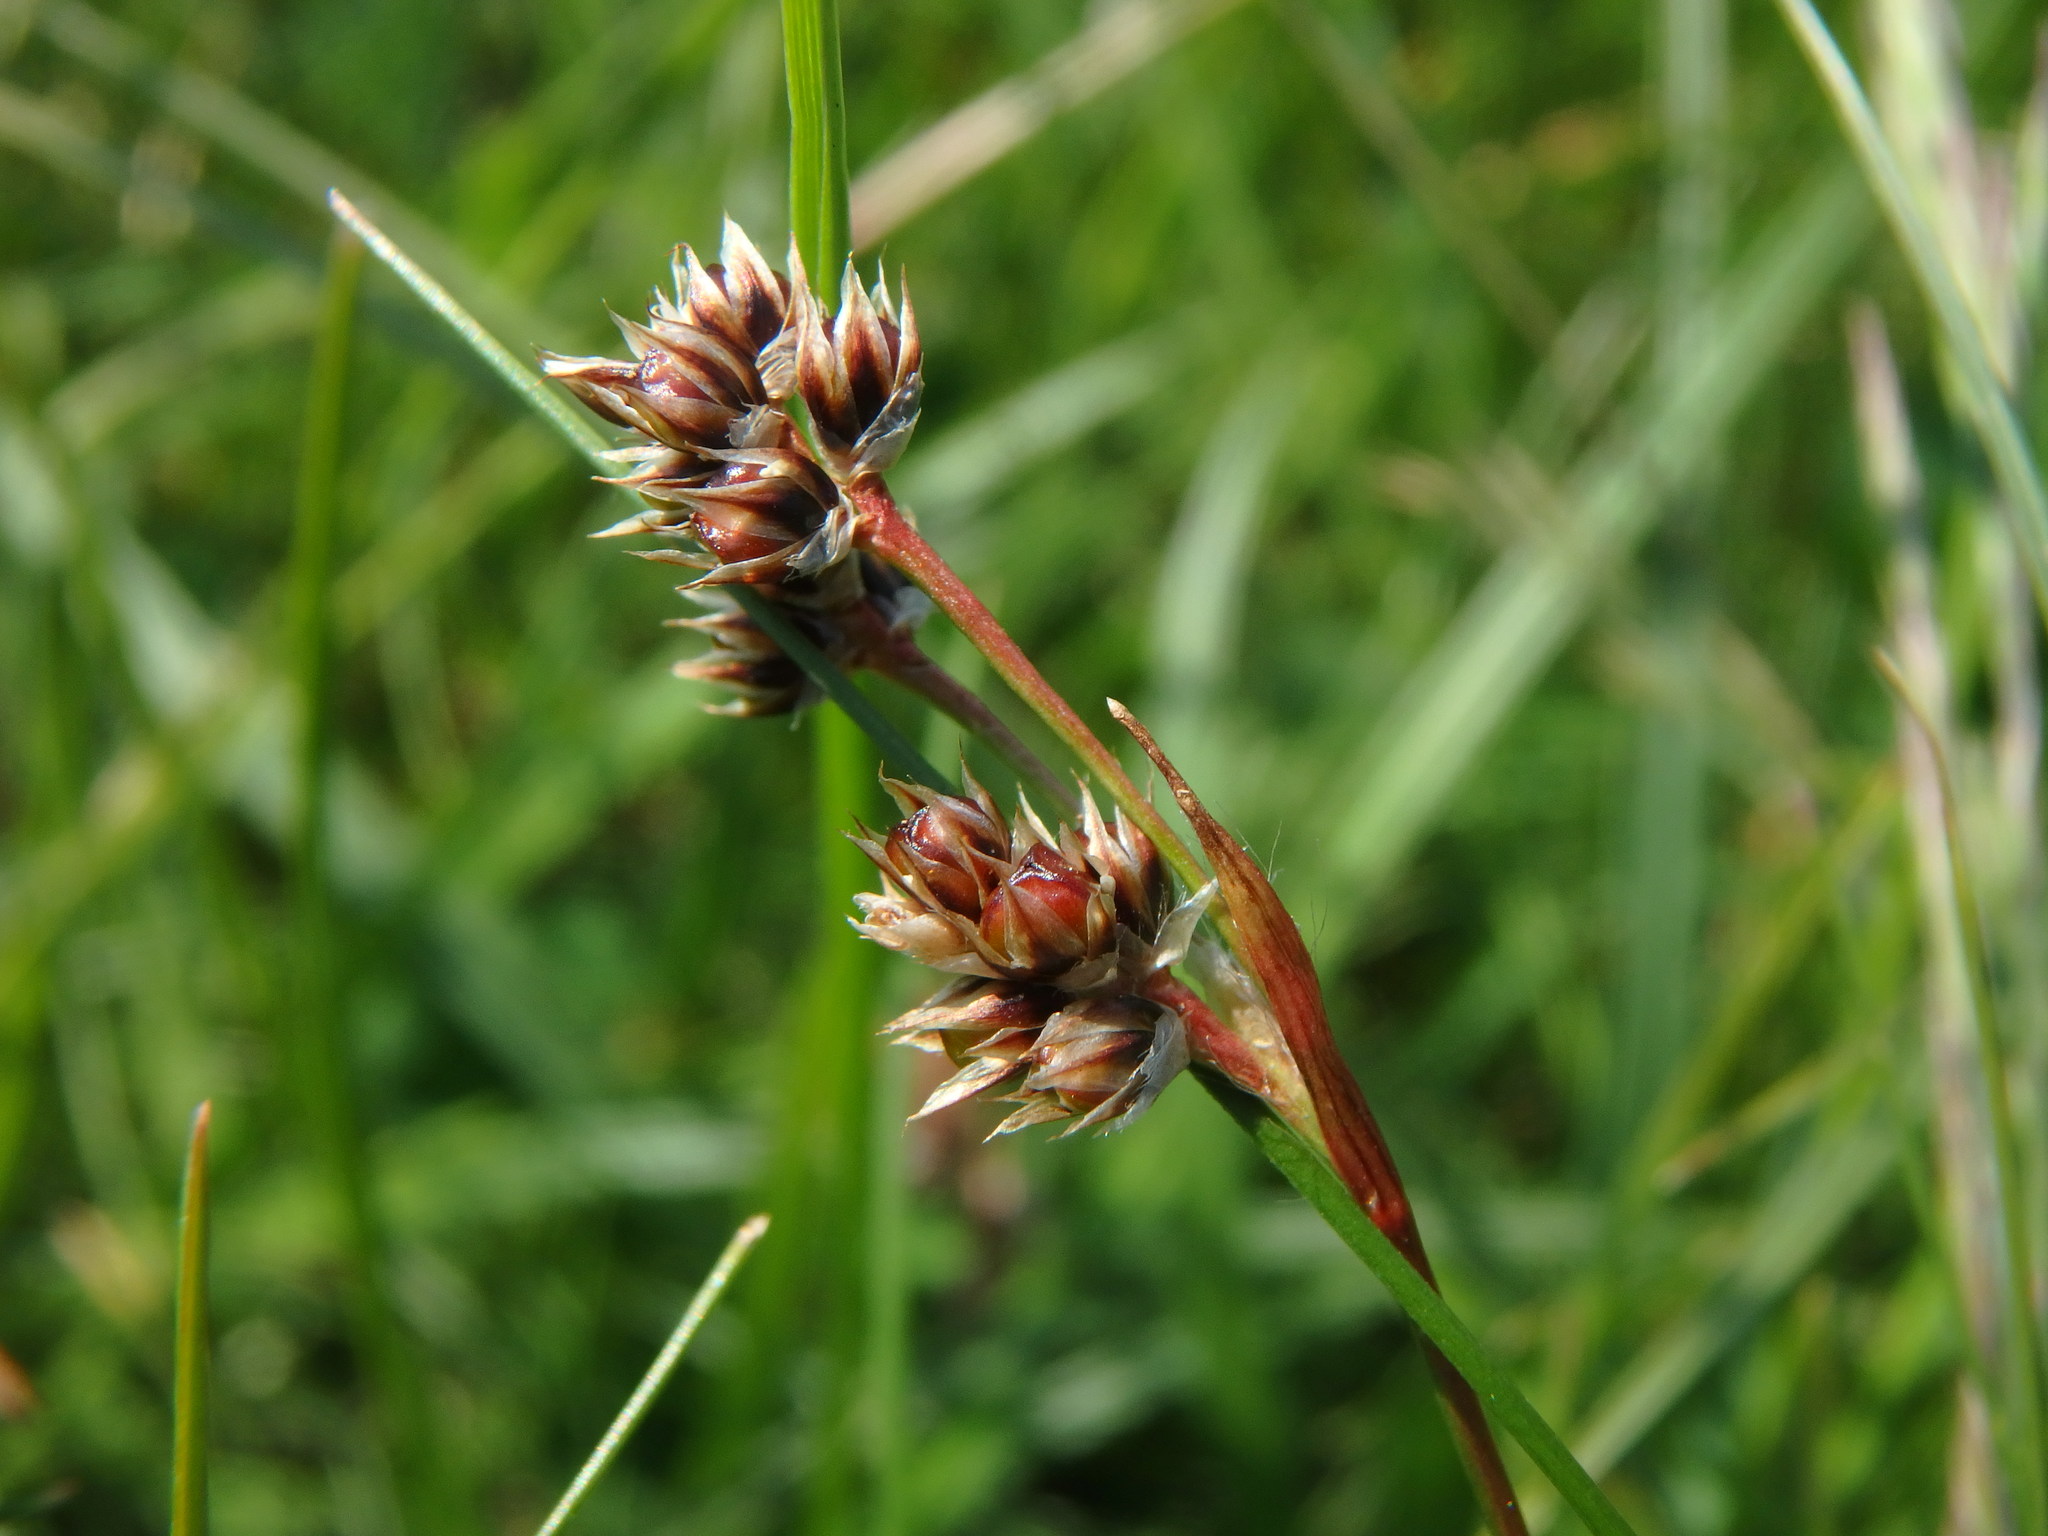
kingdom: Plantae
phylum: Tracheophyta
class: Liliopsida
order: Poales
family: Juncaceae
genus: Luzula
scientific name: Luzula campestris
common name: Field wood-rush
